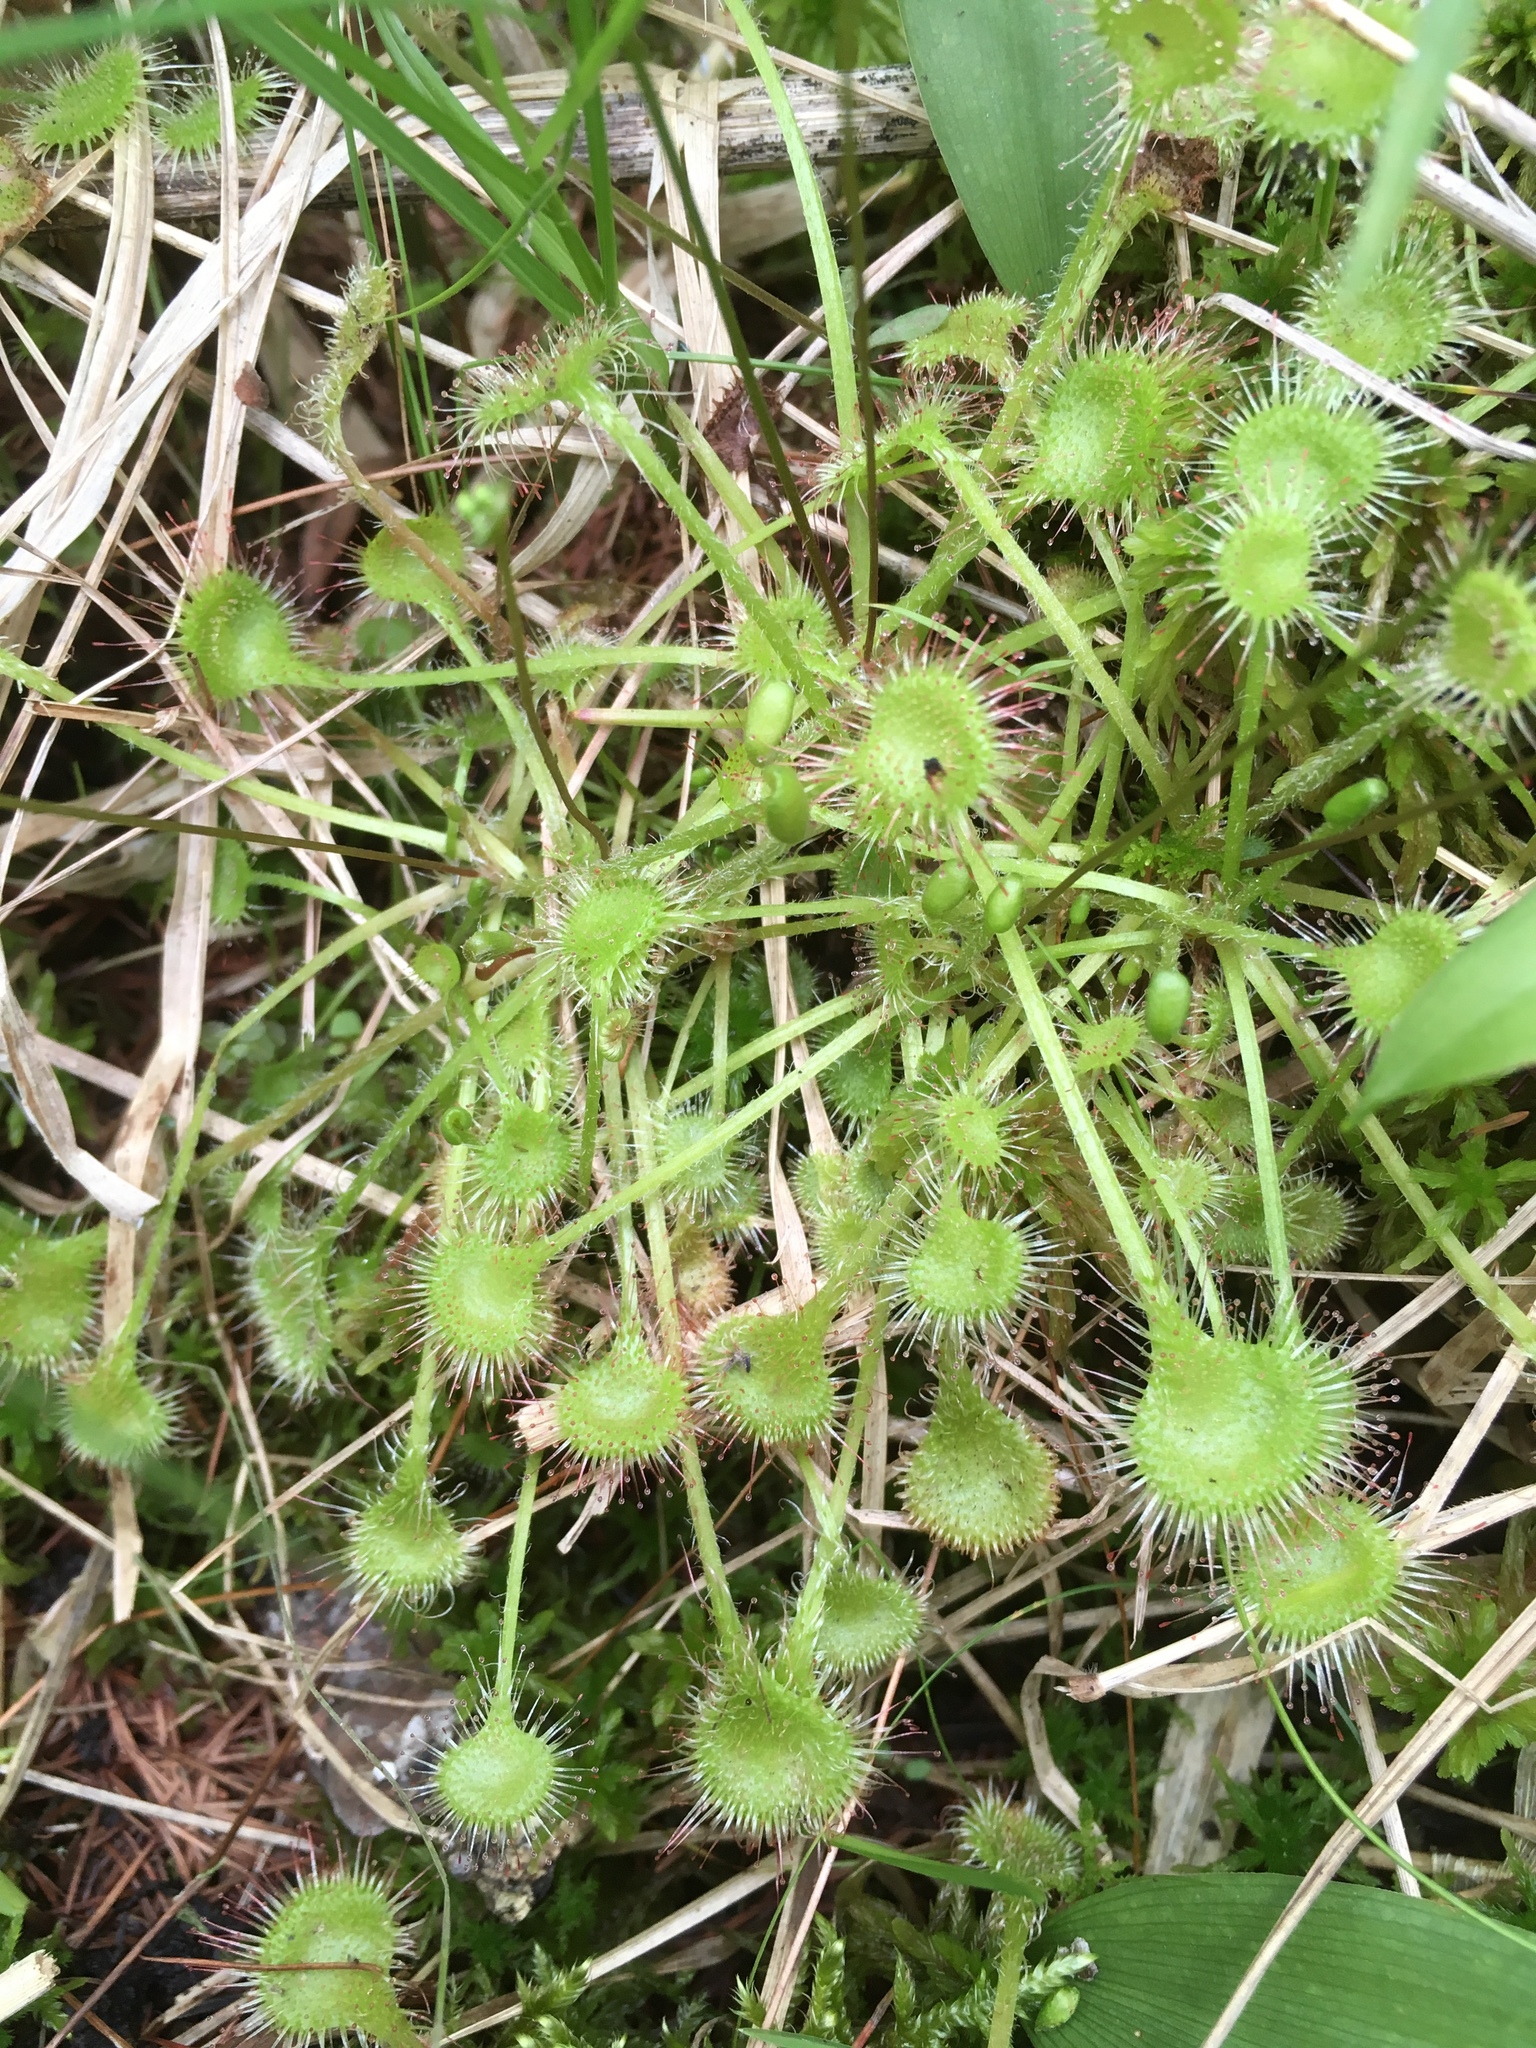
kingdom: Plantae
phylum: Tracheophyta
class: Magnoliopsida
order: Caryophyllales
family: Droseraceae
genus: Drosera
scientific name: Drosera rotundifolia
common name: Round-leaved sundew
